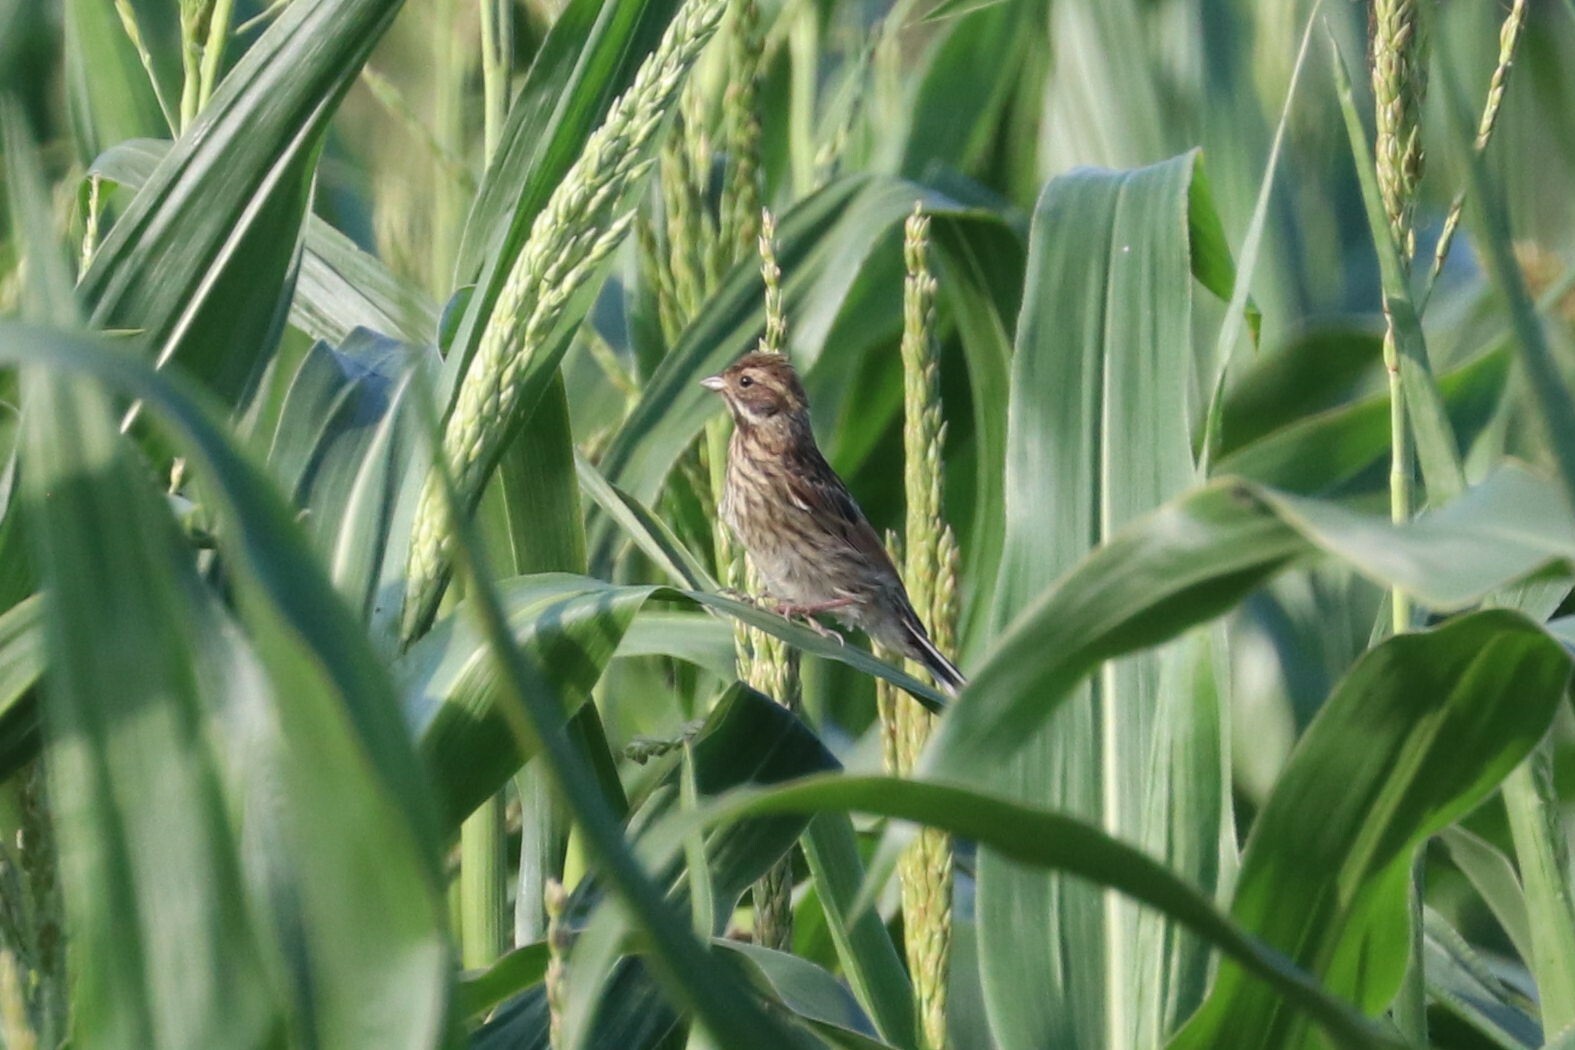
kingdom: Animalia
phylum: Chordata
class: Aves
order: Passeriformes
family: Emberizidae
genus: Emberiza
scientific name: Emberiza schoeniclus
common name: Reed bunting
